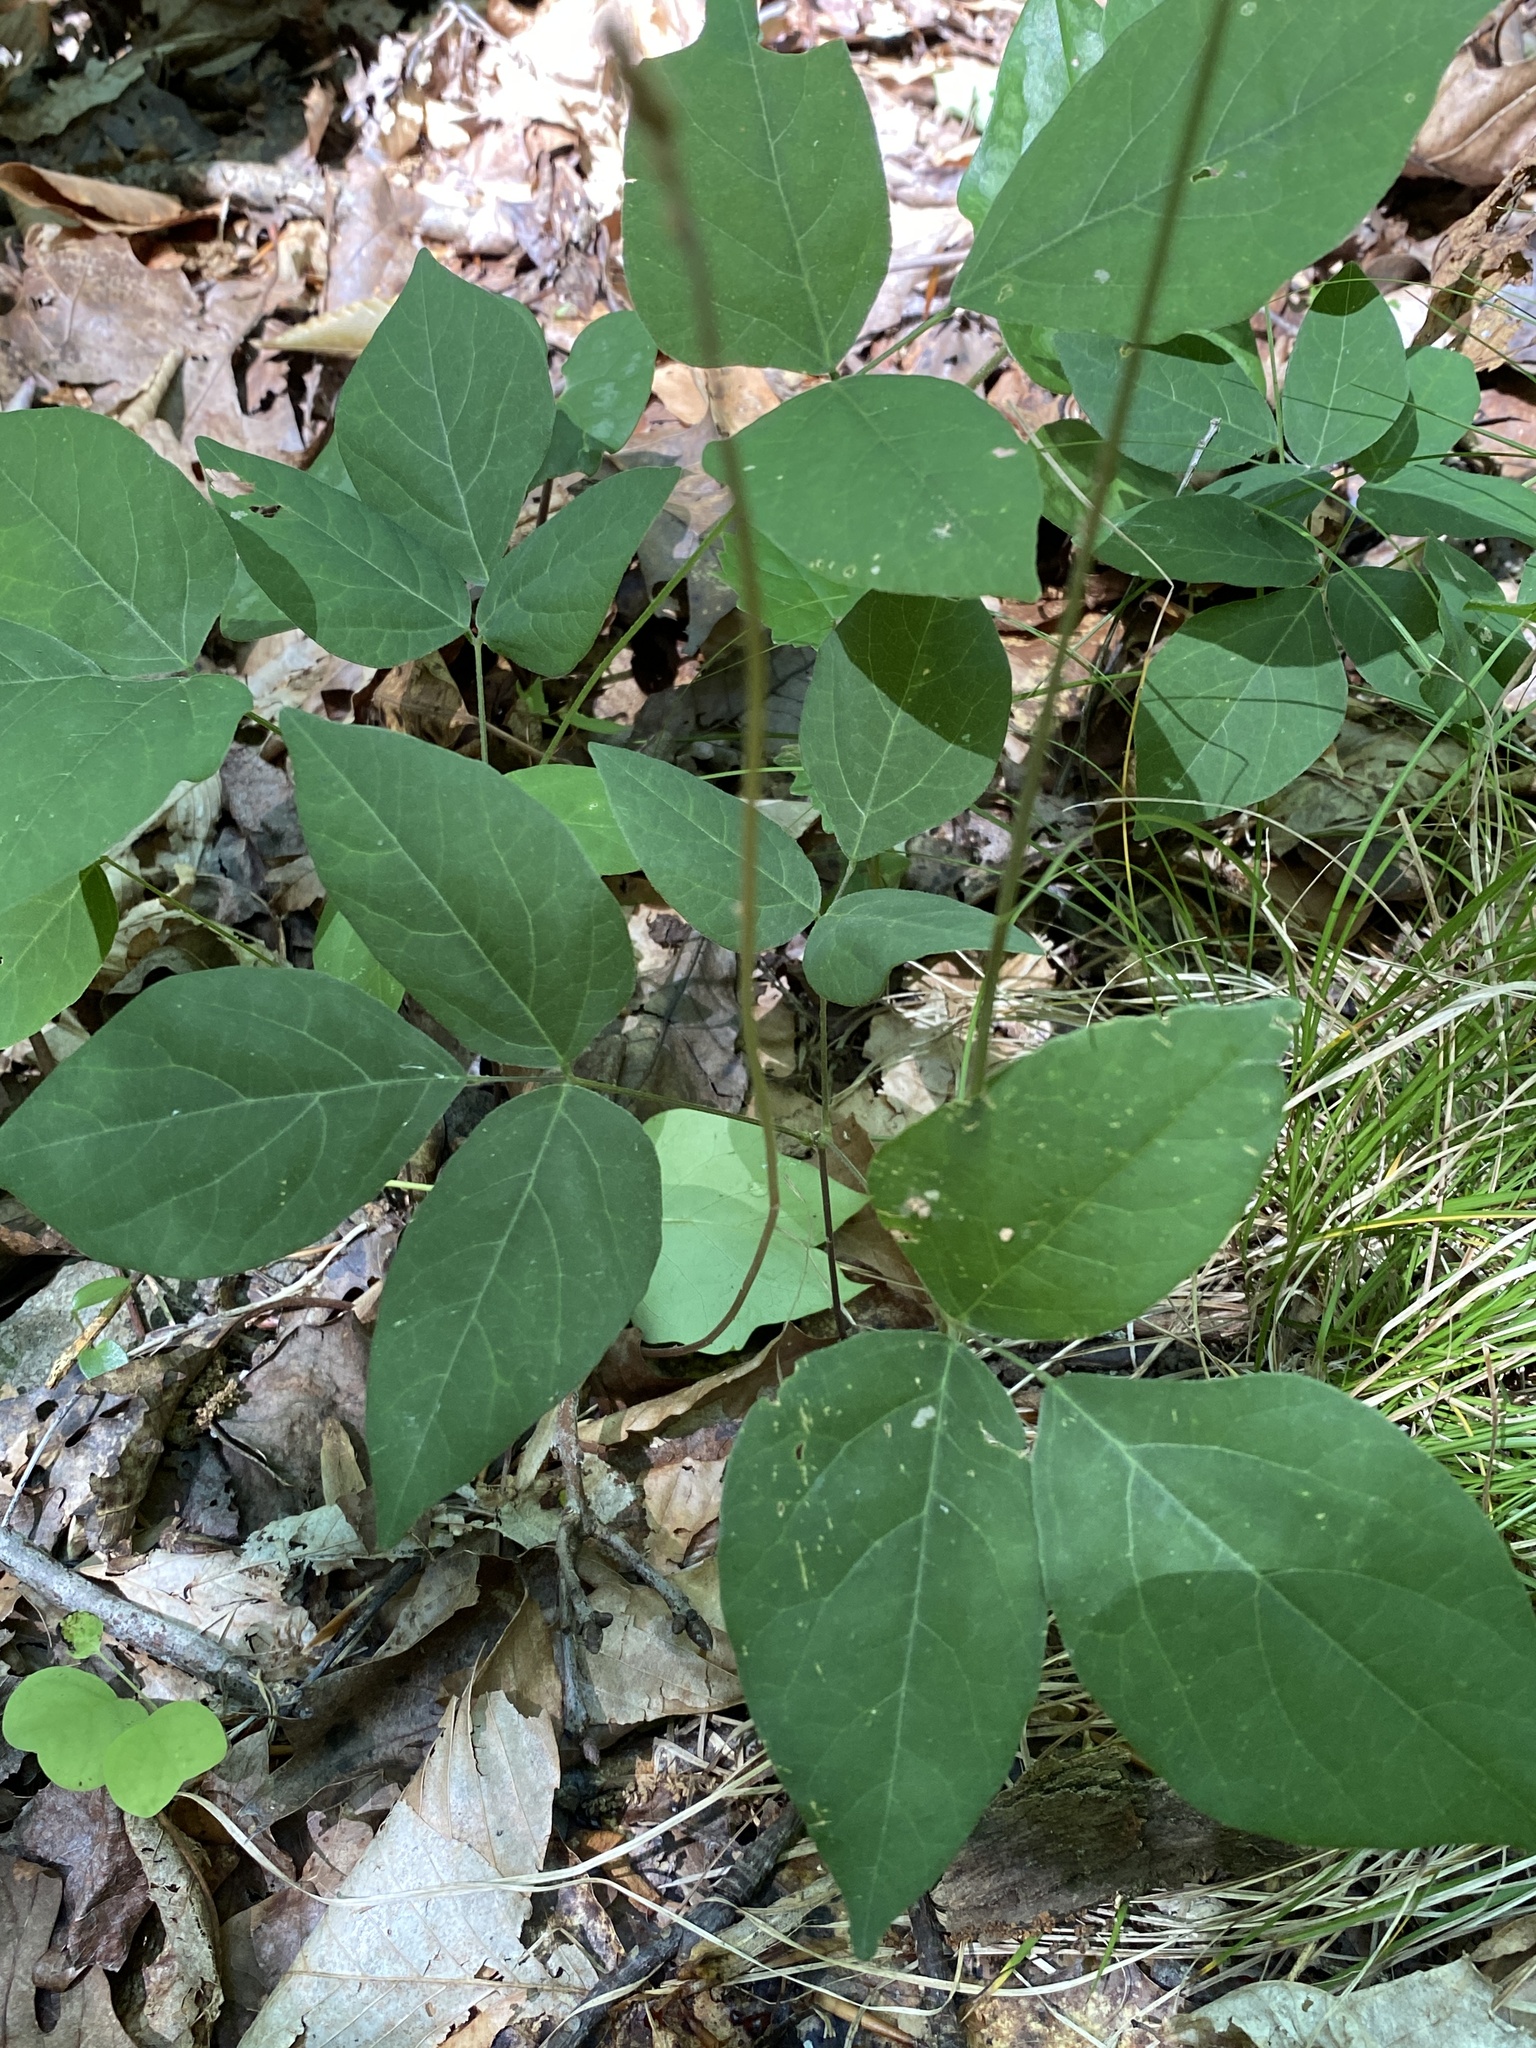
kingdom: Plantae
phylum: Tracheophyta
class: Magnoliopsida
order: Fabales
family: Fabaceae
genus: Hylodesmum
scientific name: Hylodesmum nudiflorum
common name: Bare-stemmed tick-trefoil
